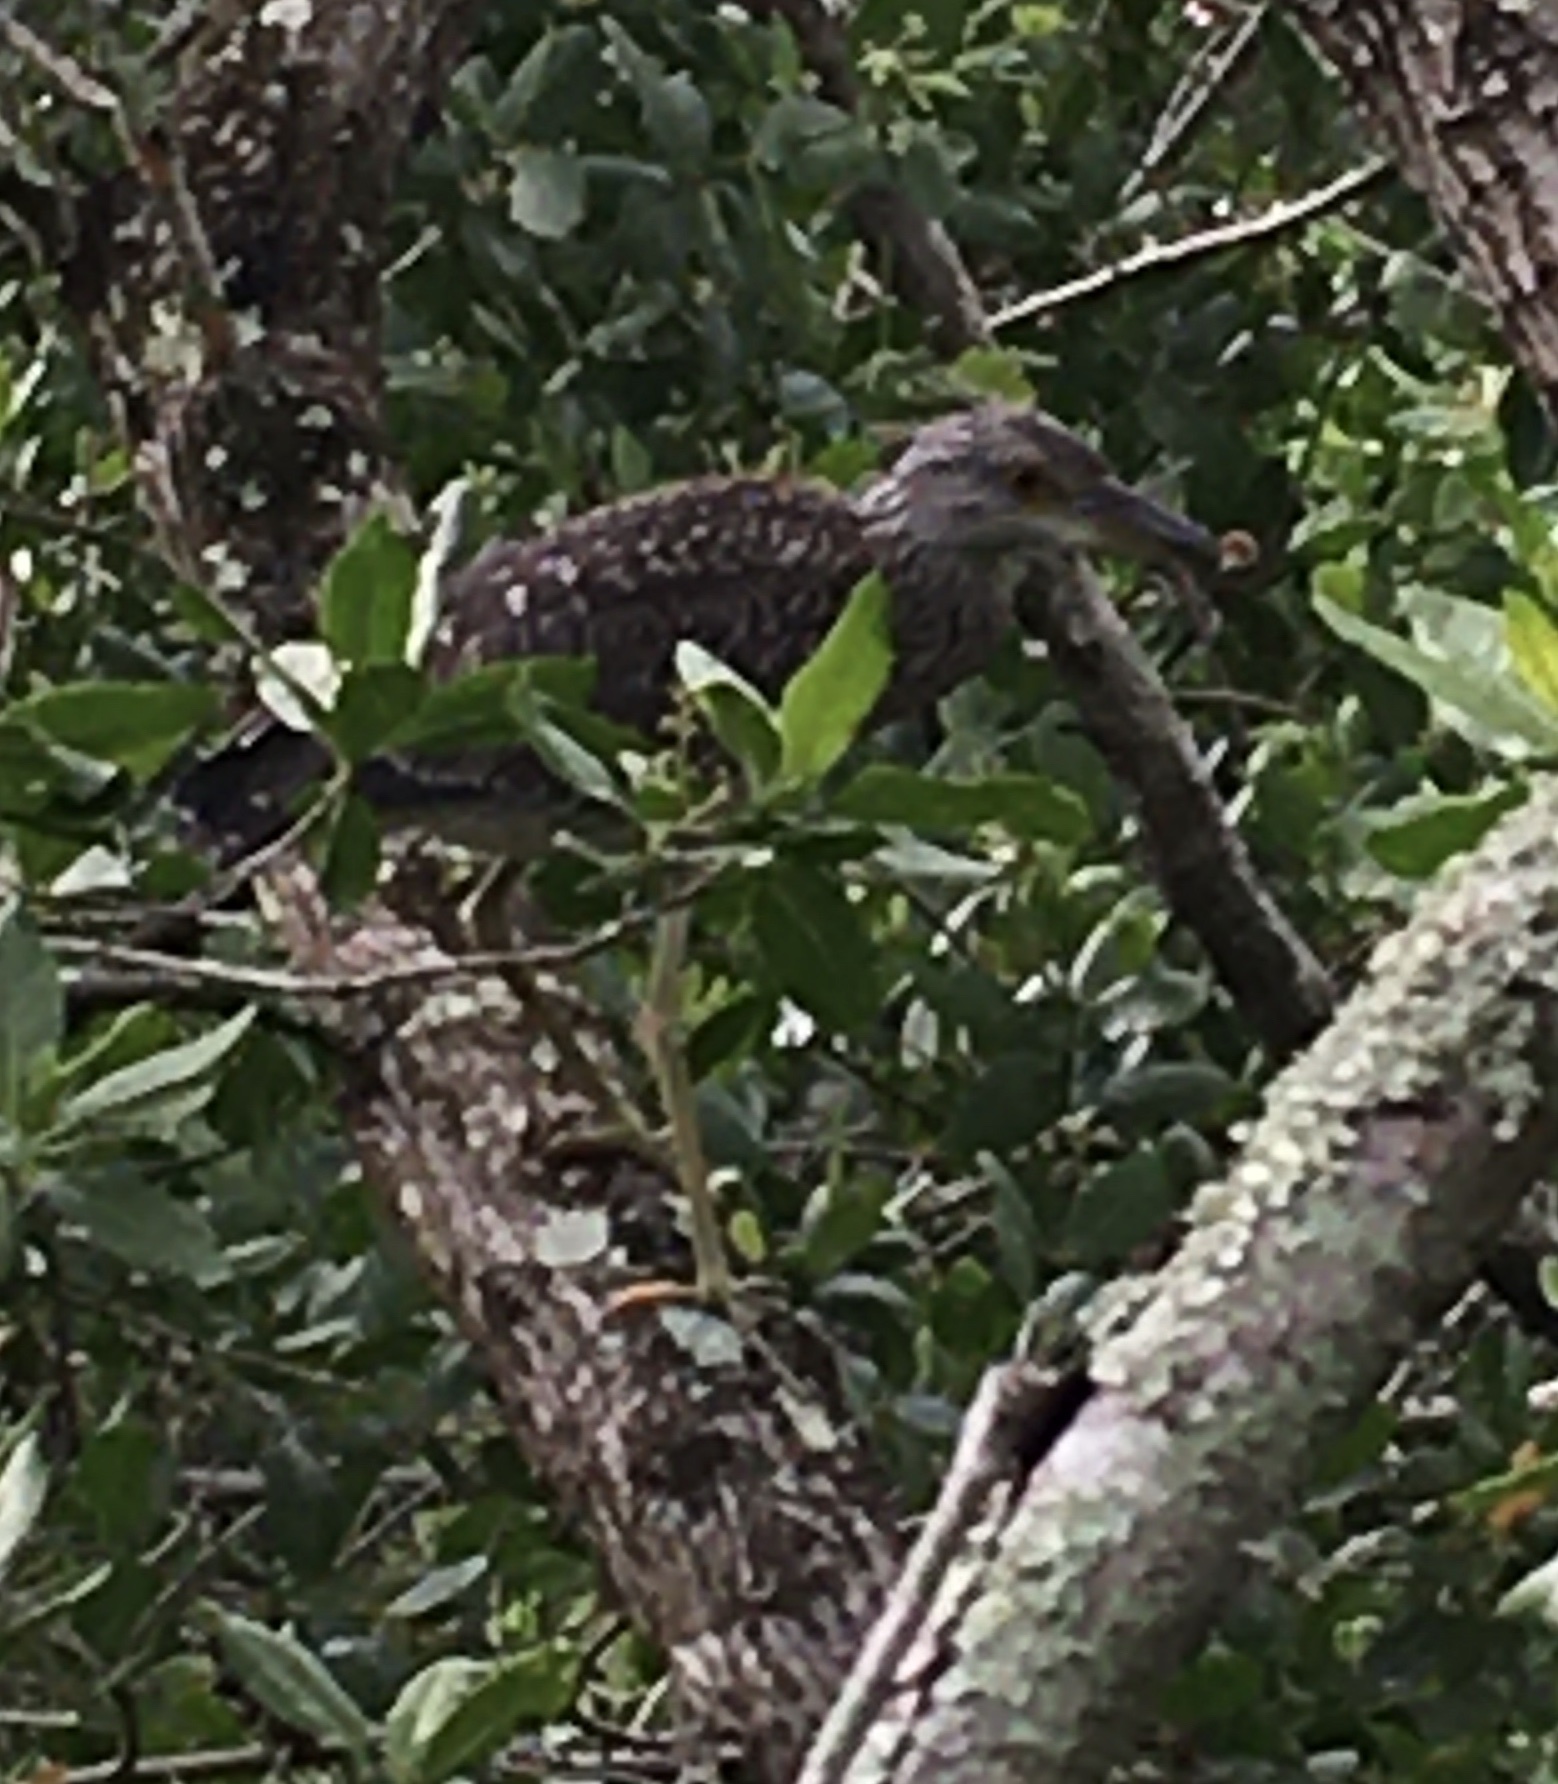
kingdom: Animalia
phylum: Chordata
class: Aves
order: Pelecaniformes
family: Ardeidae
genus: Nyctanassa
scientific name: Nyctanassa violacea
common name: Yellow-crowned night heron
